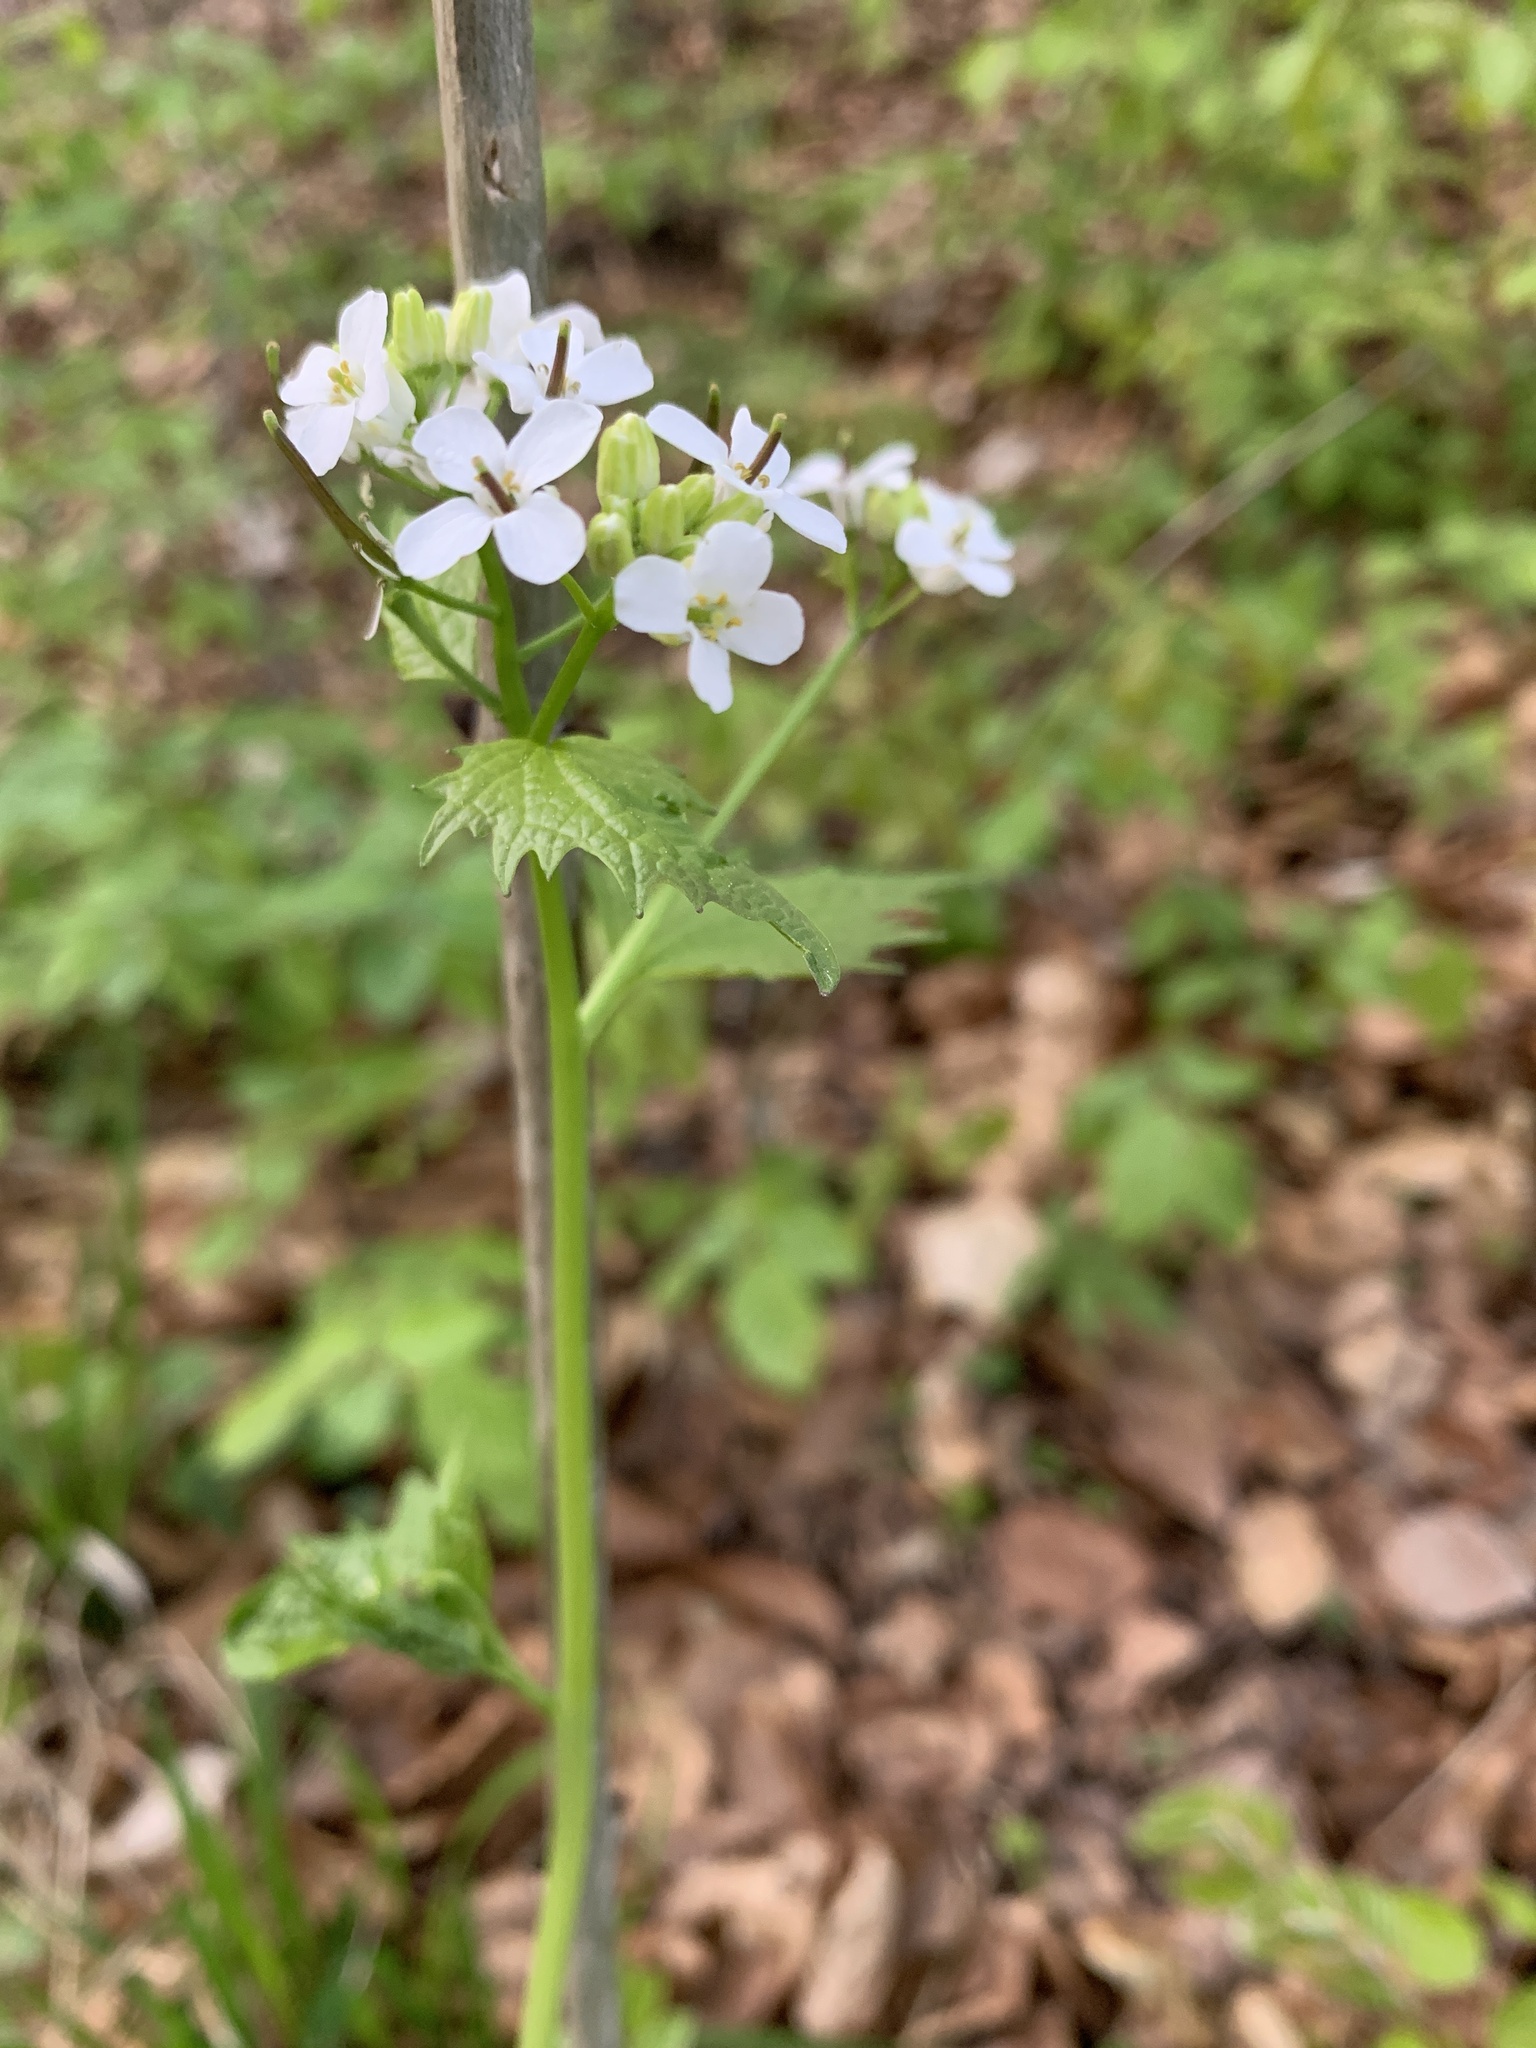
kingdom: Plantae
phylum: Tracheophyta
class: Magnoliopsida
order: Brassicales
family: Brassicaceae
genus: Alliaria
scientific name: Alliaria petiolata
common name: Garlic mustard
